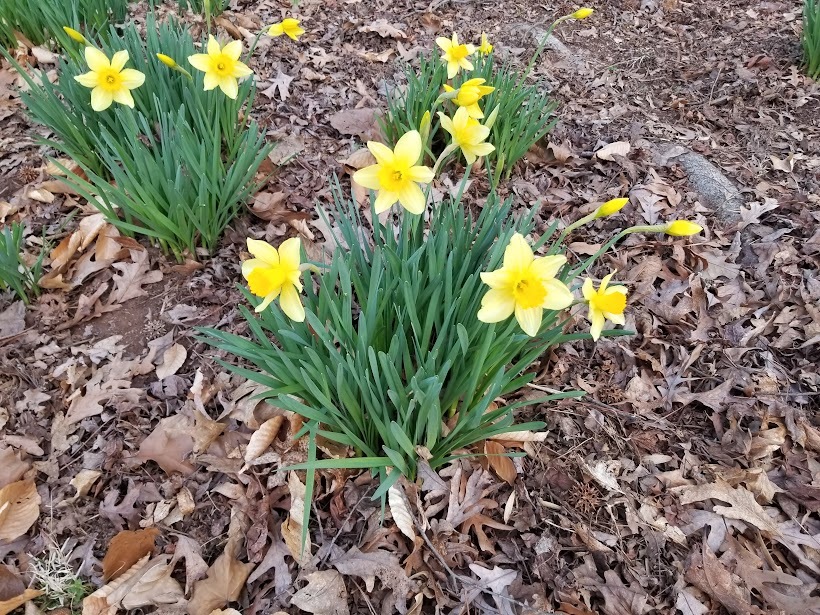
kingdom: Plantae
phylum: Tracheophyta
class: Liliopsida
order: Asparagales
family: Amaryllidaceae
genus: Narcissus
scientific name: Narcissus pseudonarcissus
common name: Daffodil
